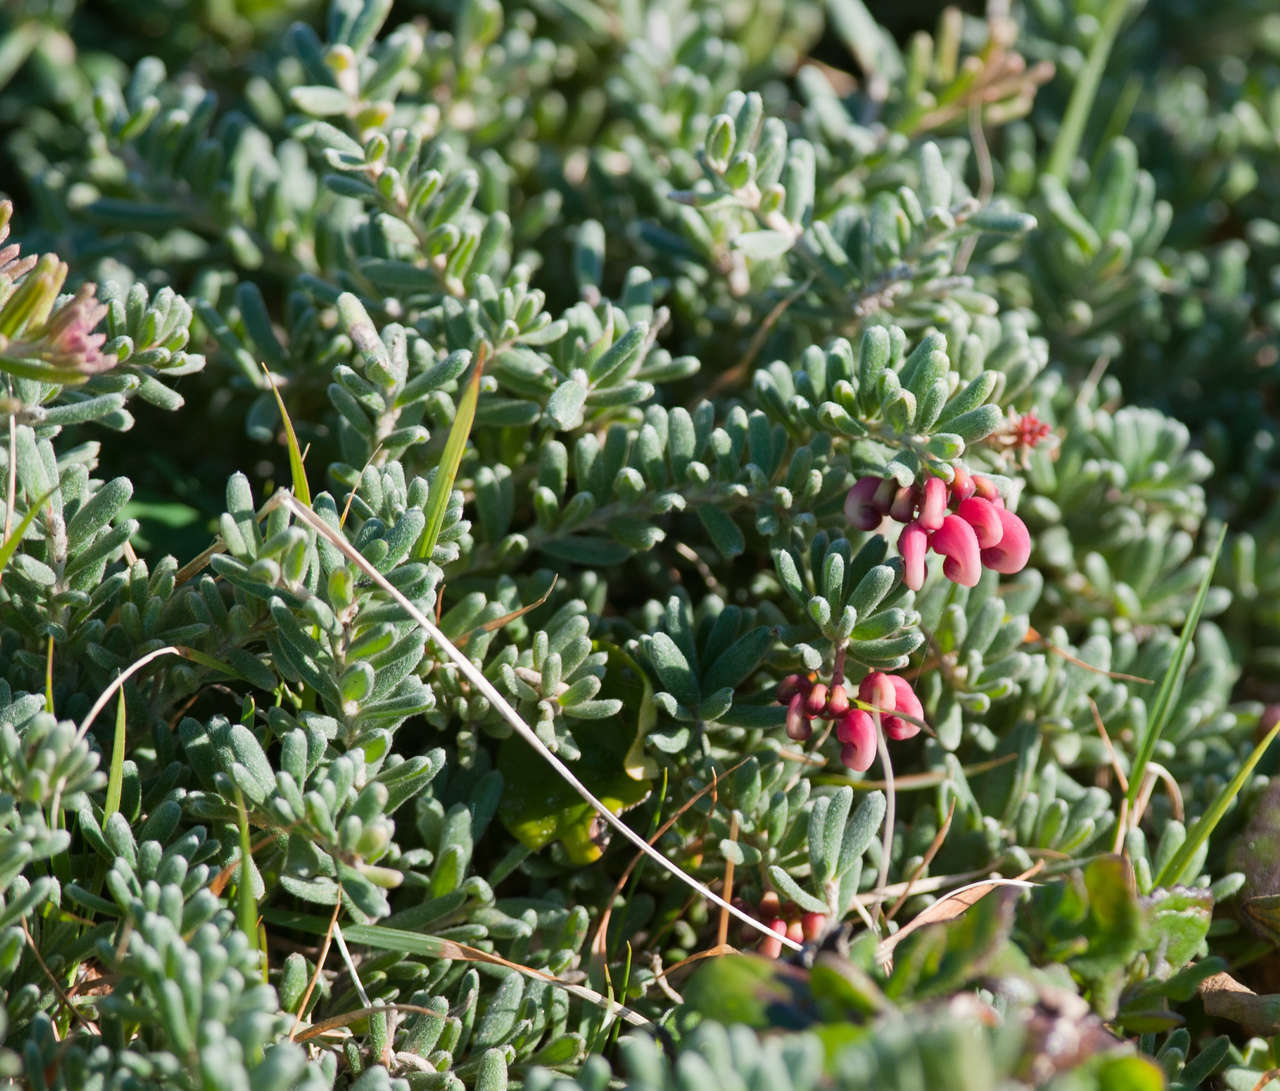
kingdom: Plantae
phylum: Tracheophyta
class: Magnoliopsida
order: Proteales
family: Proteaceae
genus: Grevillea
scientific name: Grevillea lanigera
